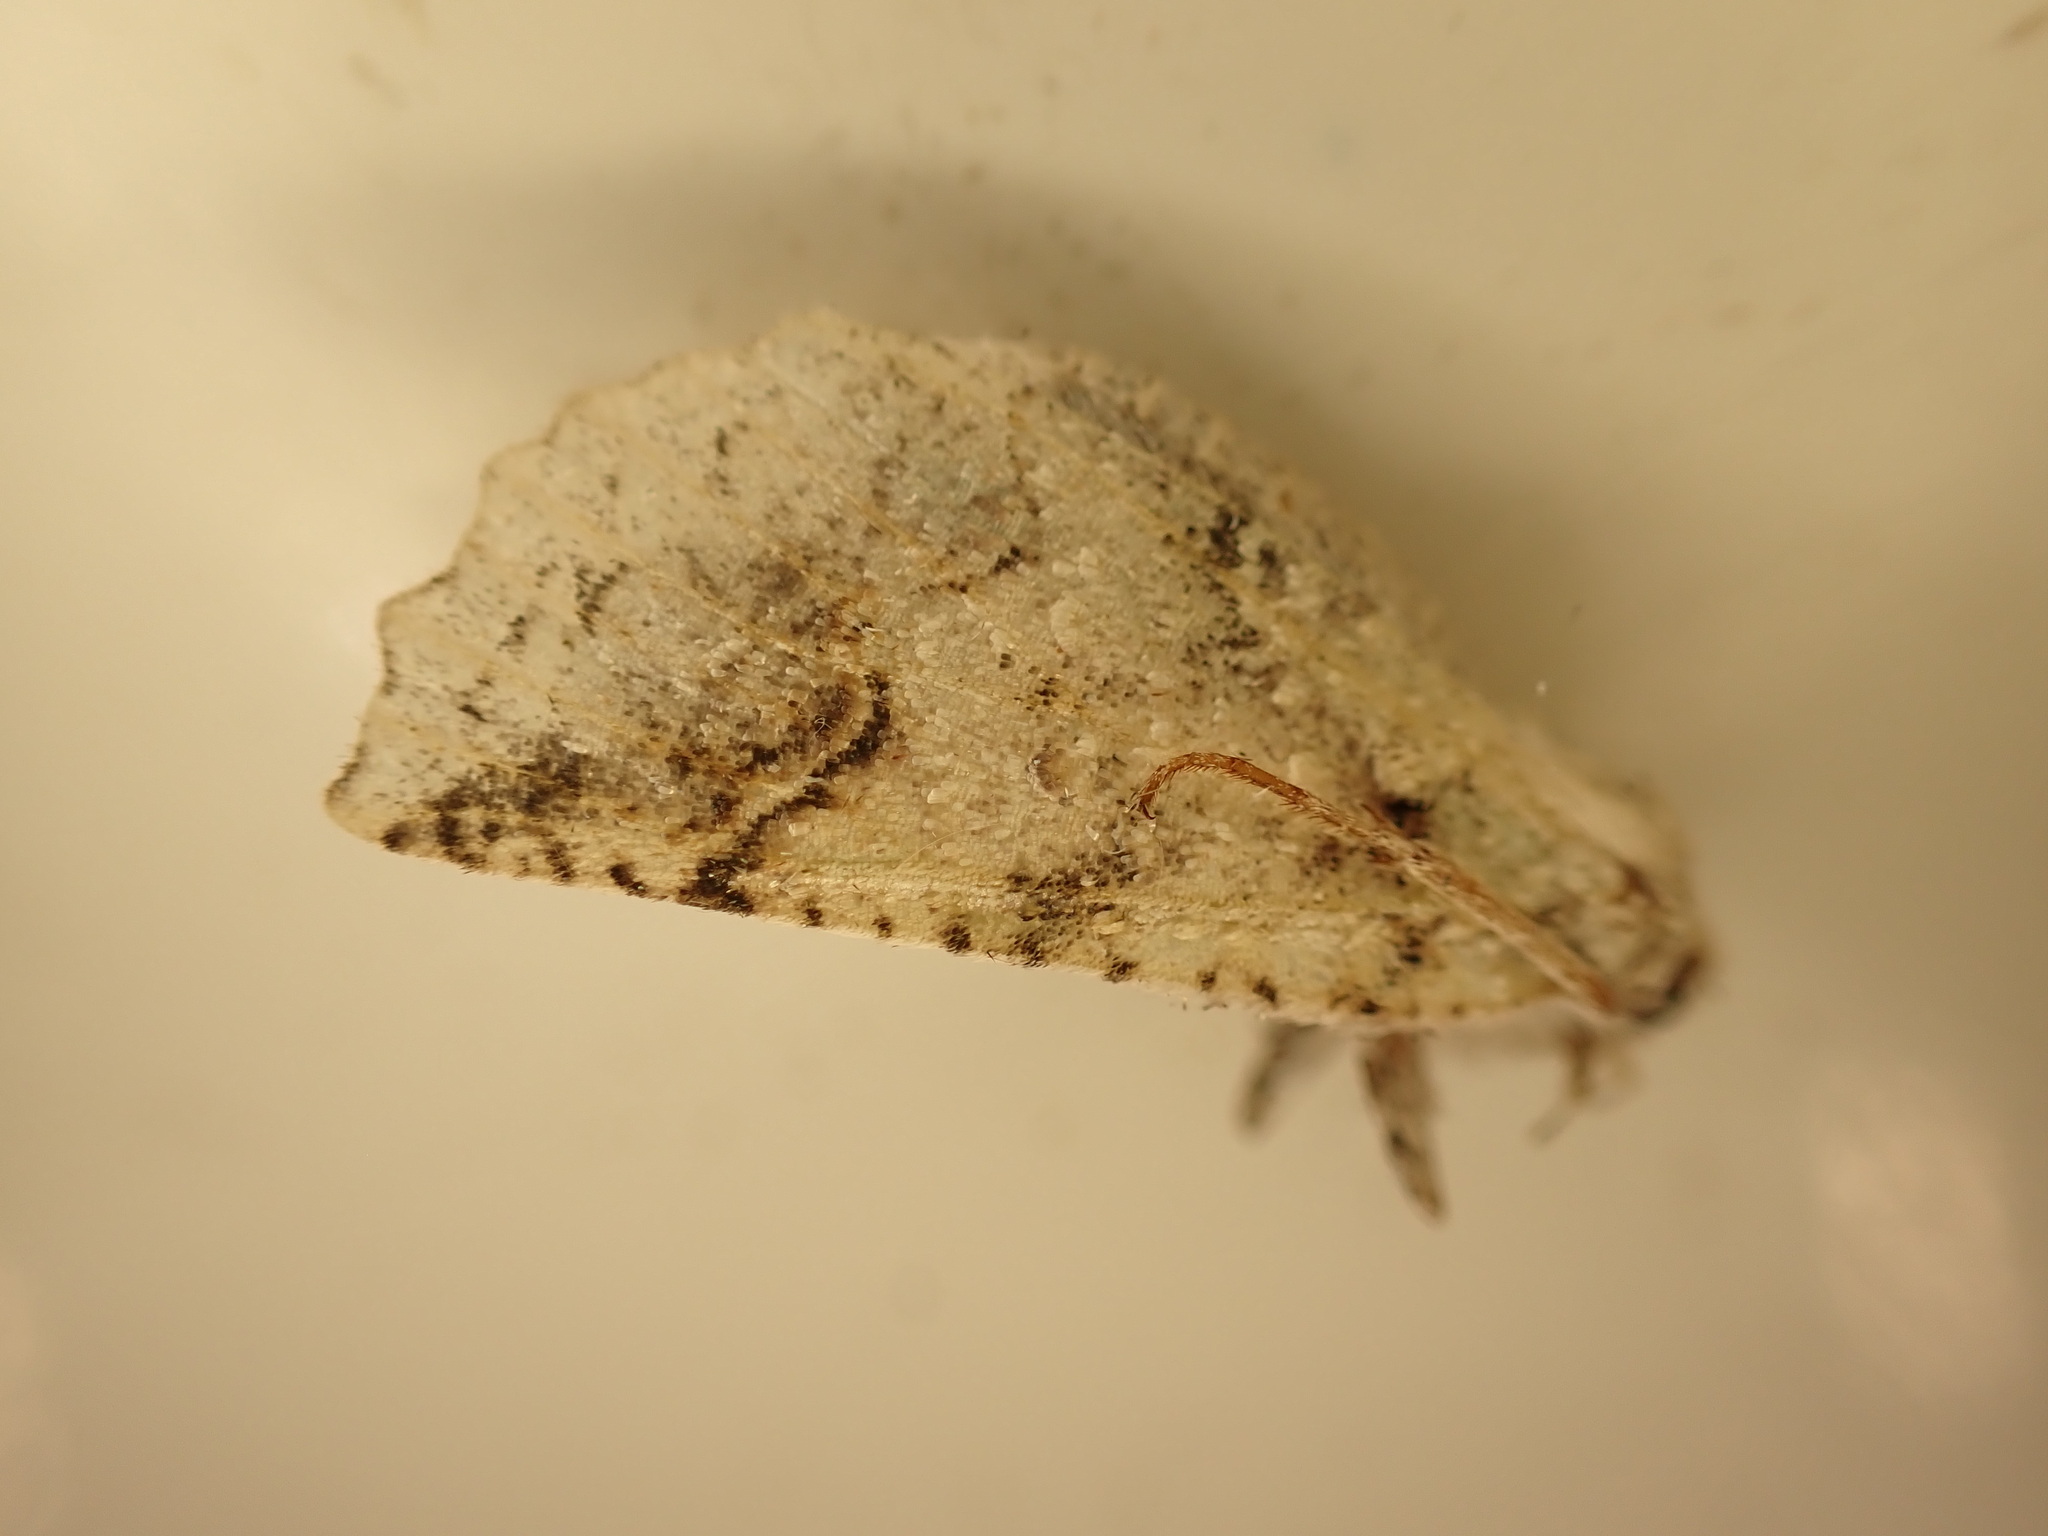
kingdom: Animalia
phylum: Arthropoda
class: Insecta
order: Lepidoptera
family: Geometridae
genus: Declana
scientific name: Declana floccosa
